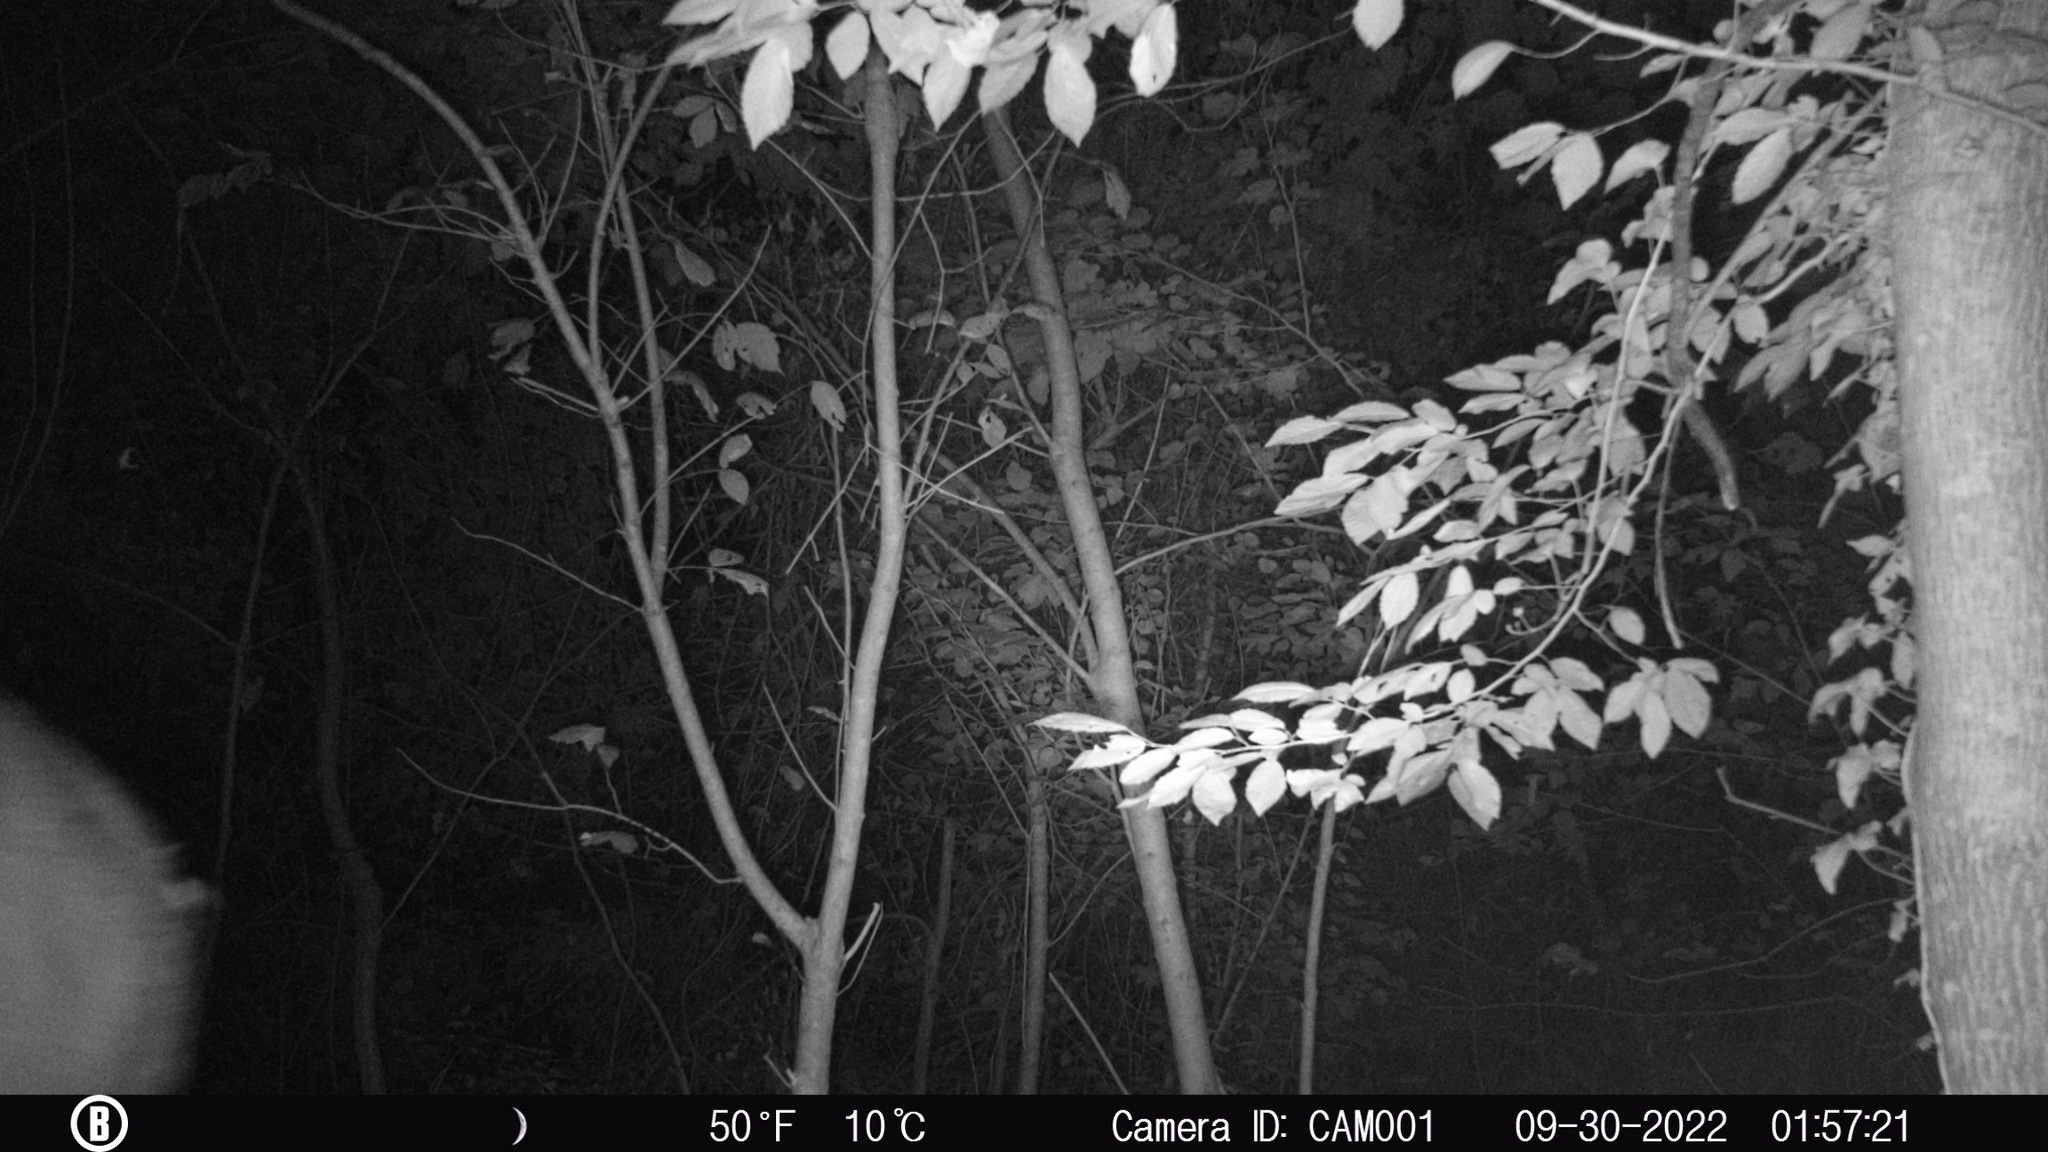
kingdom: Animalia
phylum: Chordata
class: Mammalia
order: Artiodactyla
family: Cervidae
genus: Odocoileus
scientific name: Odocoileus virginianus
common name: White-tailed deer
